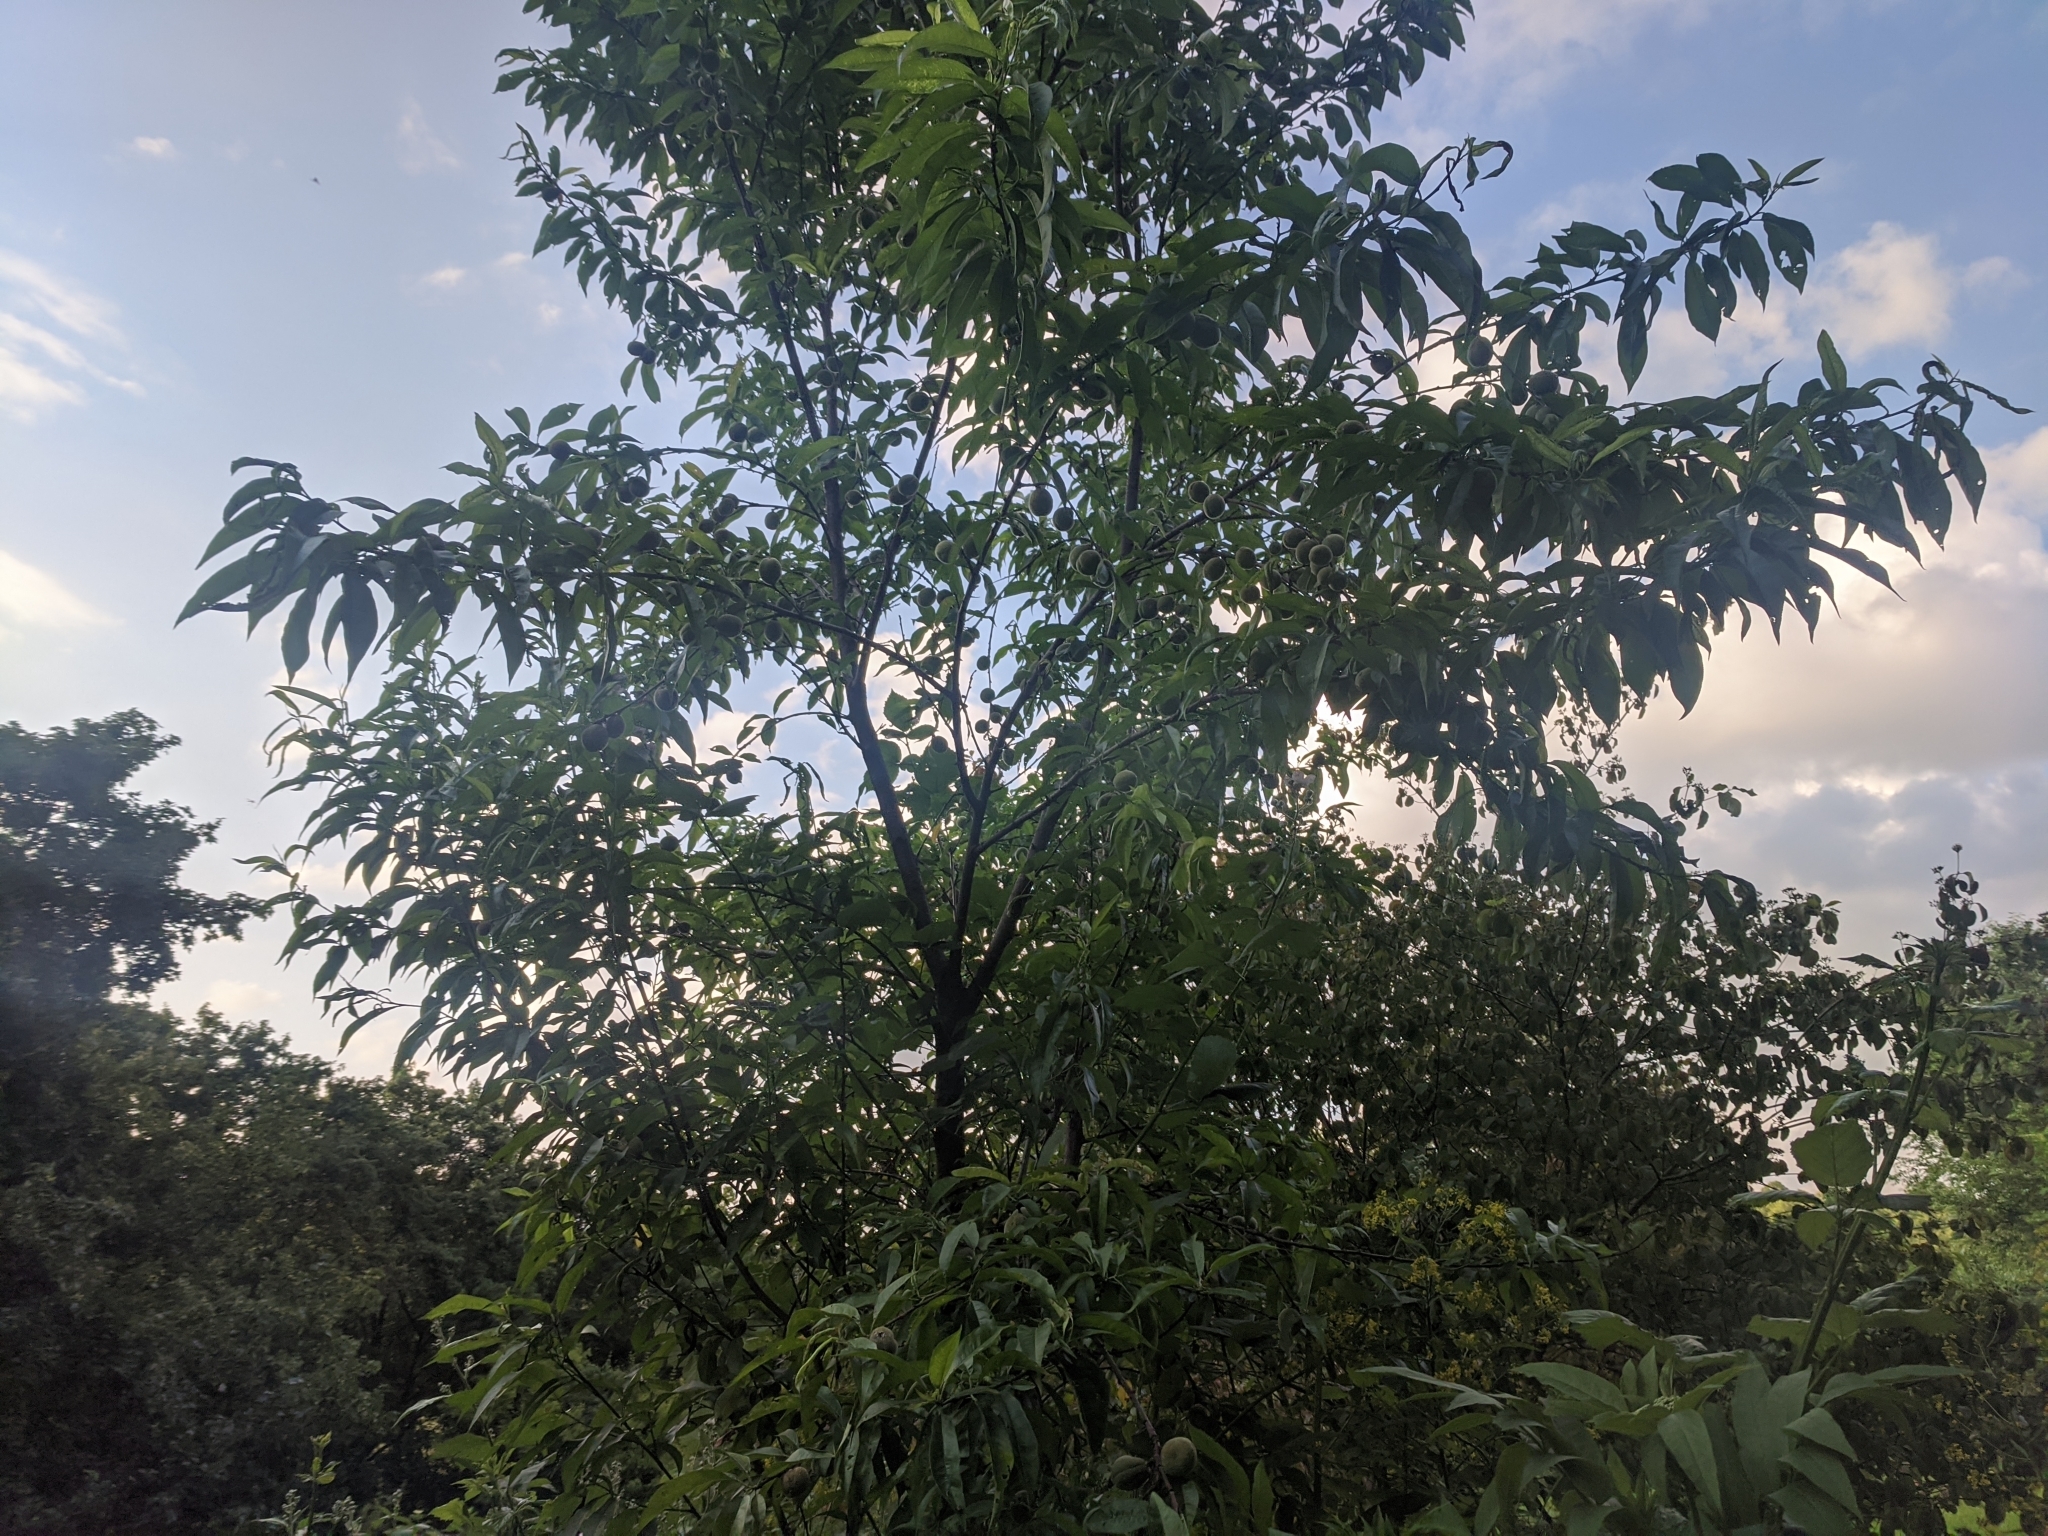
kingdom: Plantae
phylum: Tracheophyta
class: Magnoliopsida
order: Rosales
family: Rosaceae
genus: Prunus
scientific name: Prunus persica
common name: Peach
